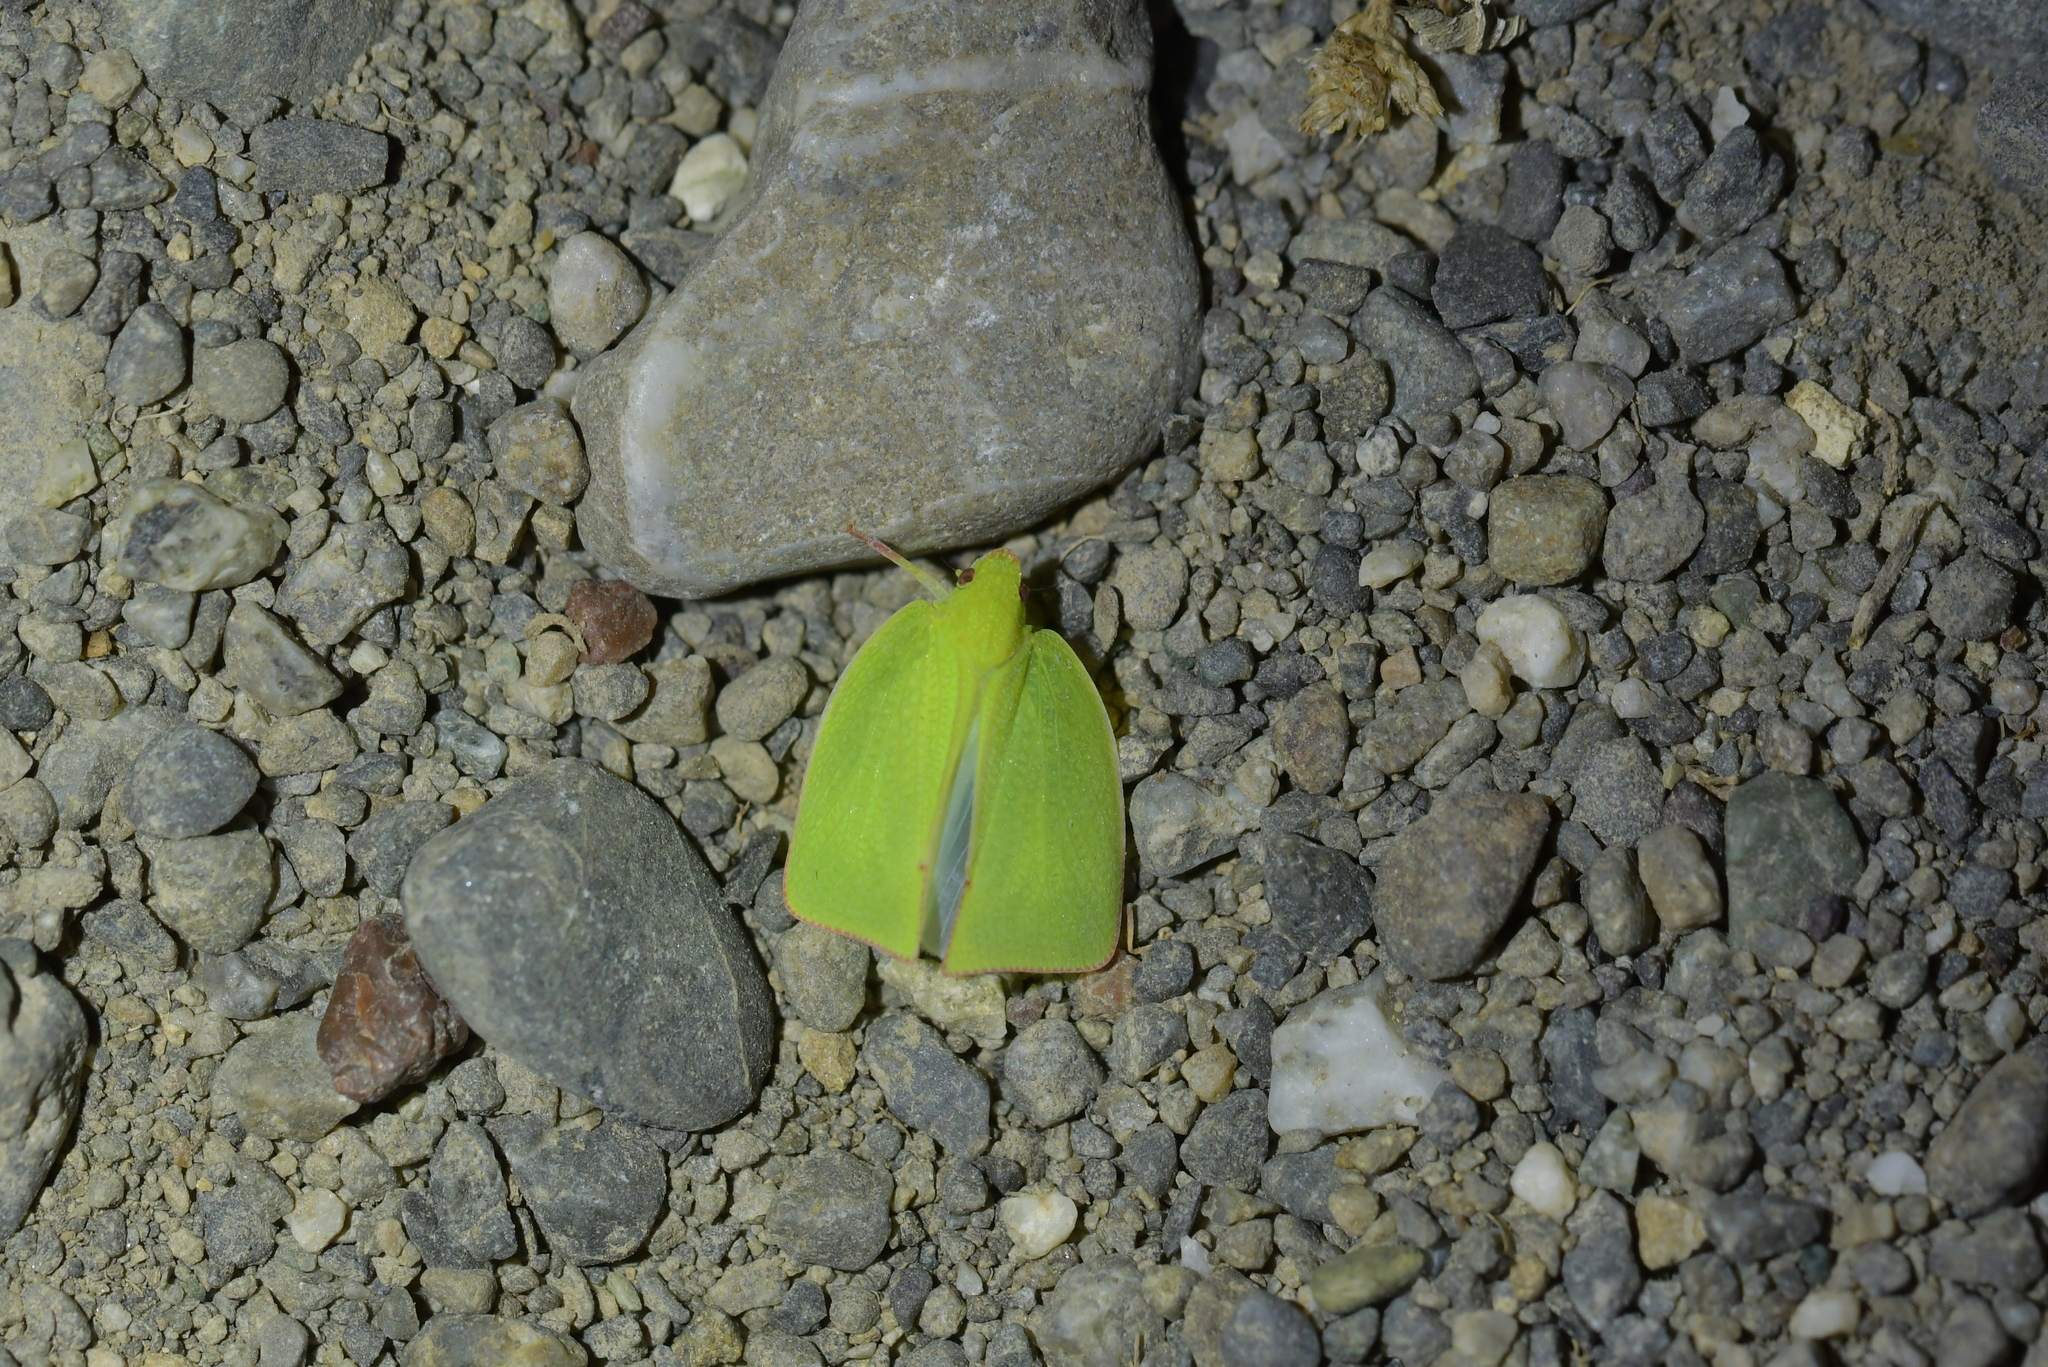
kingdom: Animalia
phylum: Arthropoda
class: Insecta
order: Hemiptera
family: Flatidae
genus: Siphanta
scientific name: Siphanta acuta
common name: Torpedo bug
